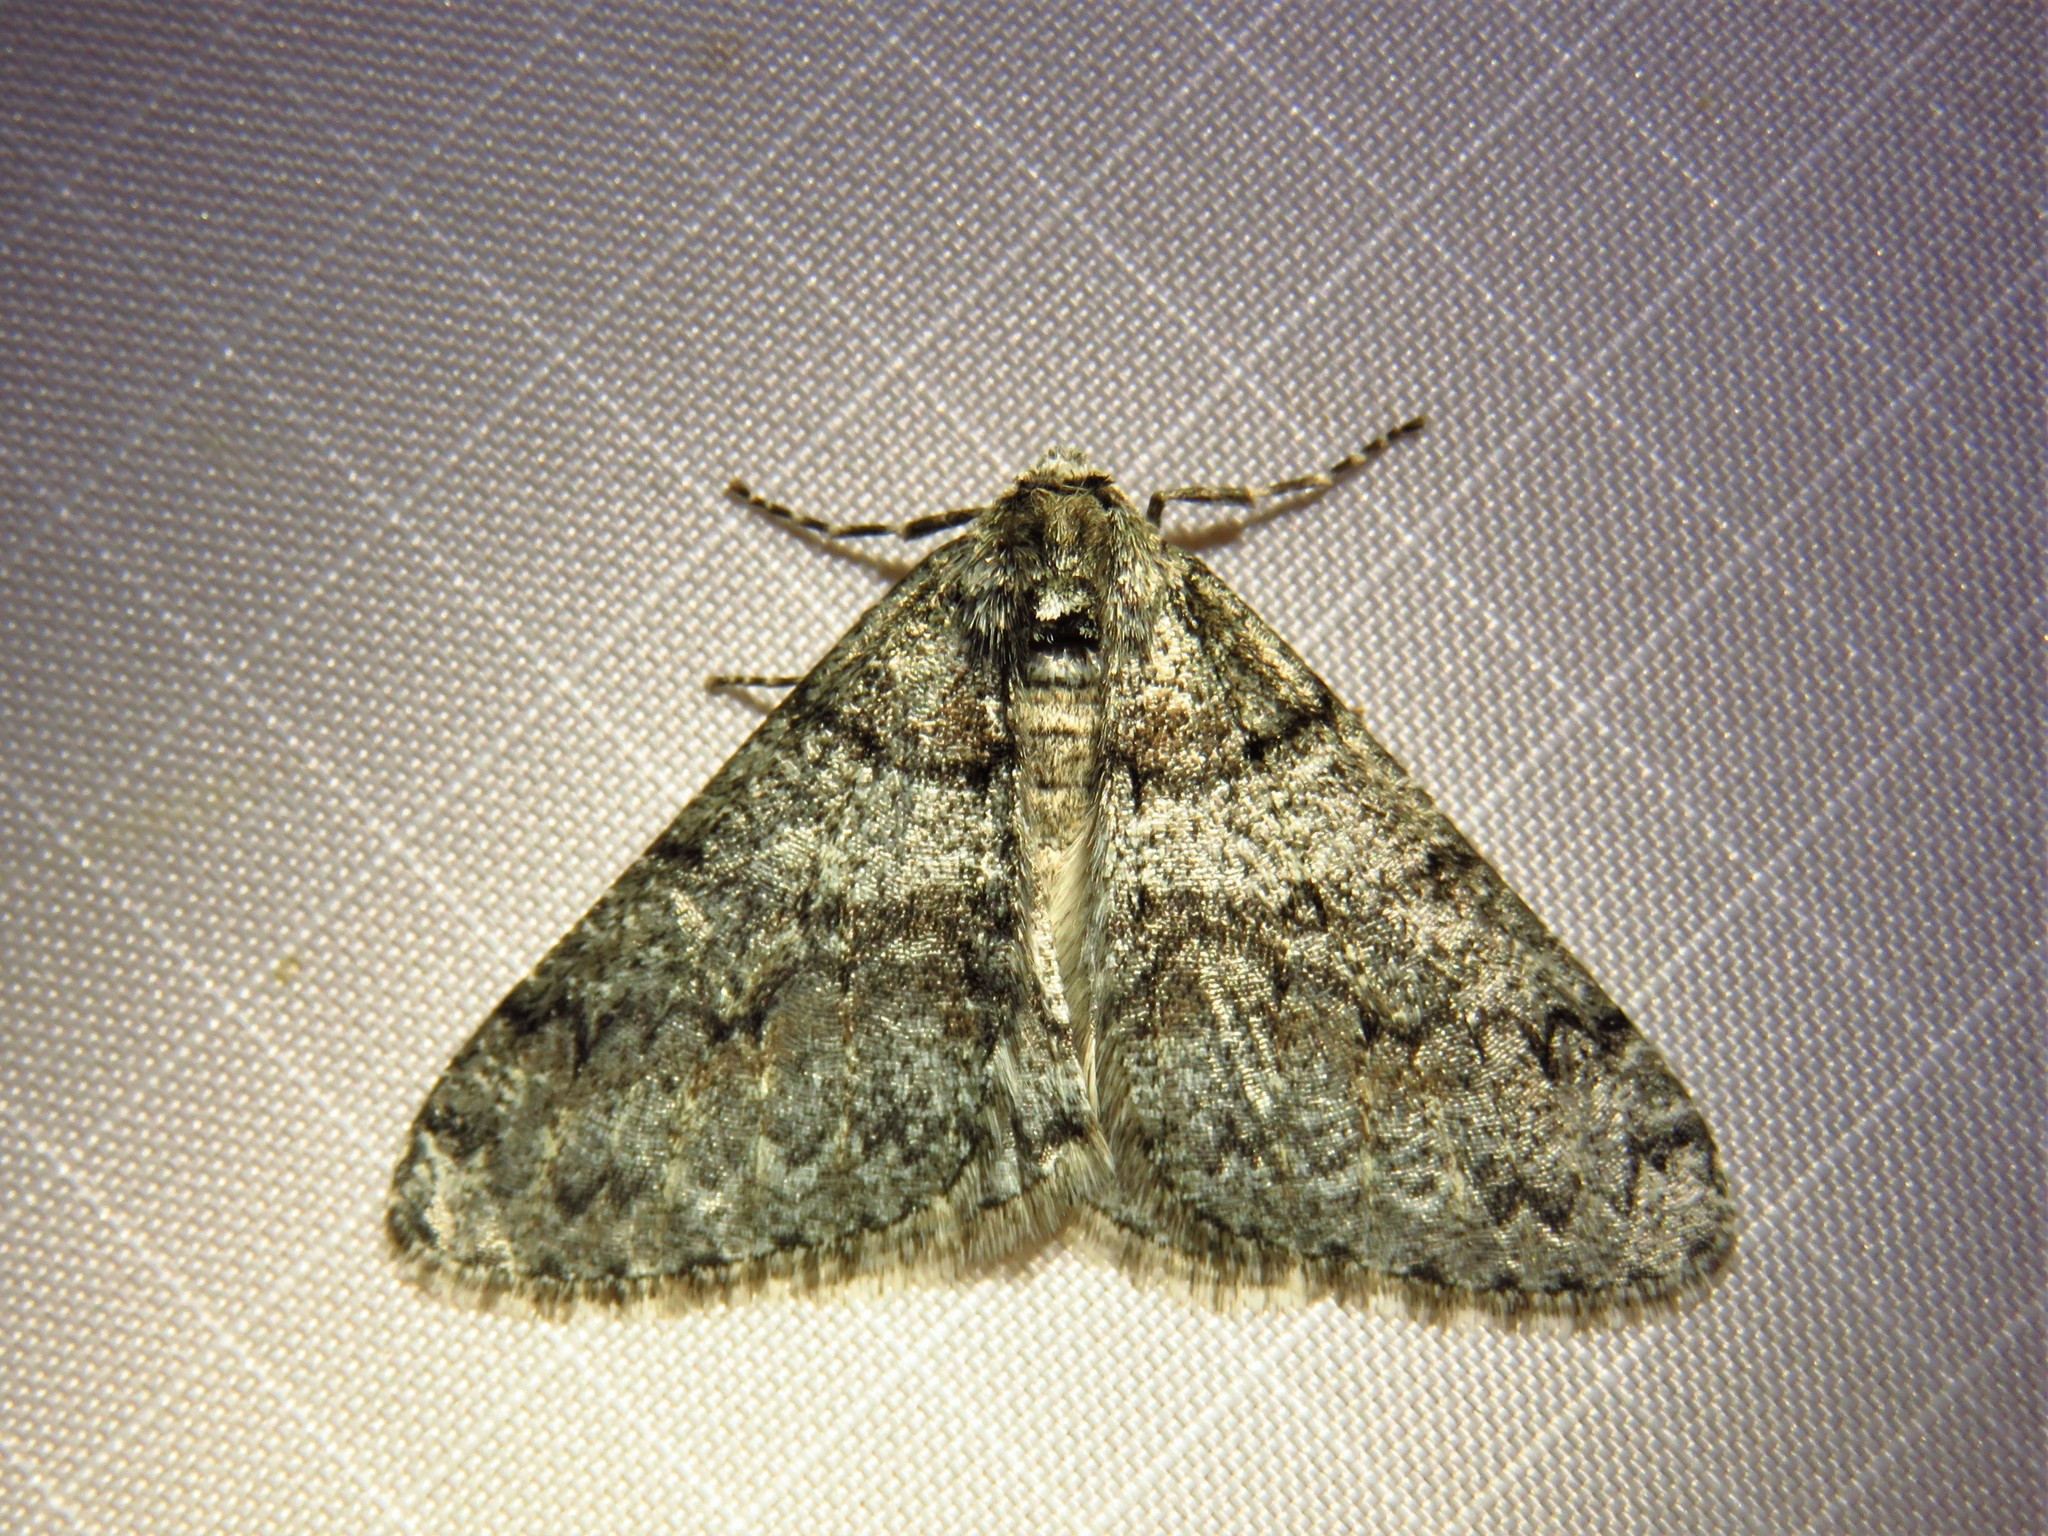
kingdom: Animalia
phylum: Arthropoda
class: Insecta
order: Lepidoptera
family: Geometridae
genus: Phigalia
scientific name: Phigalia denticulata
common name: Toothed phigalia
